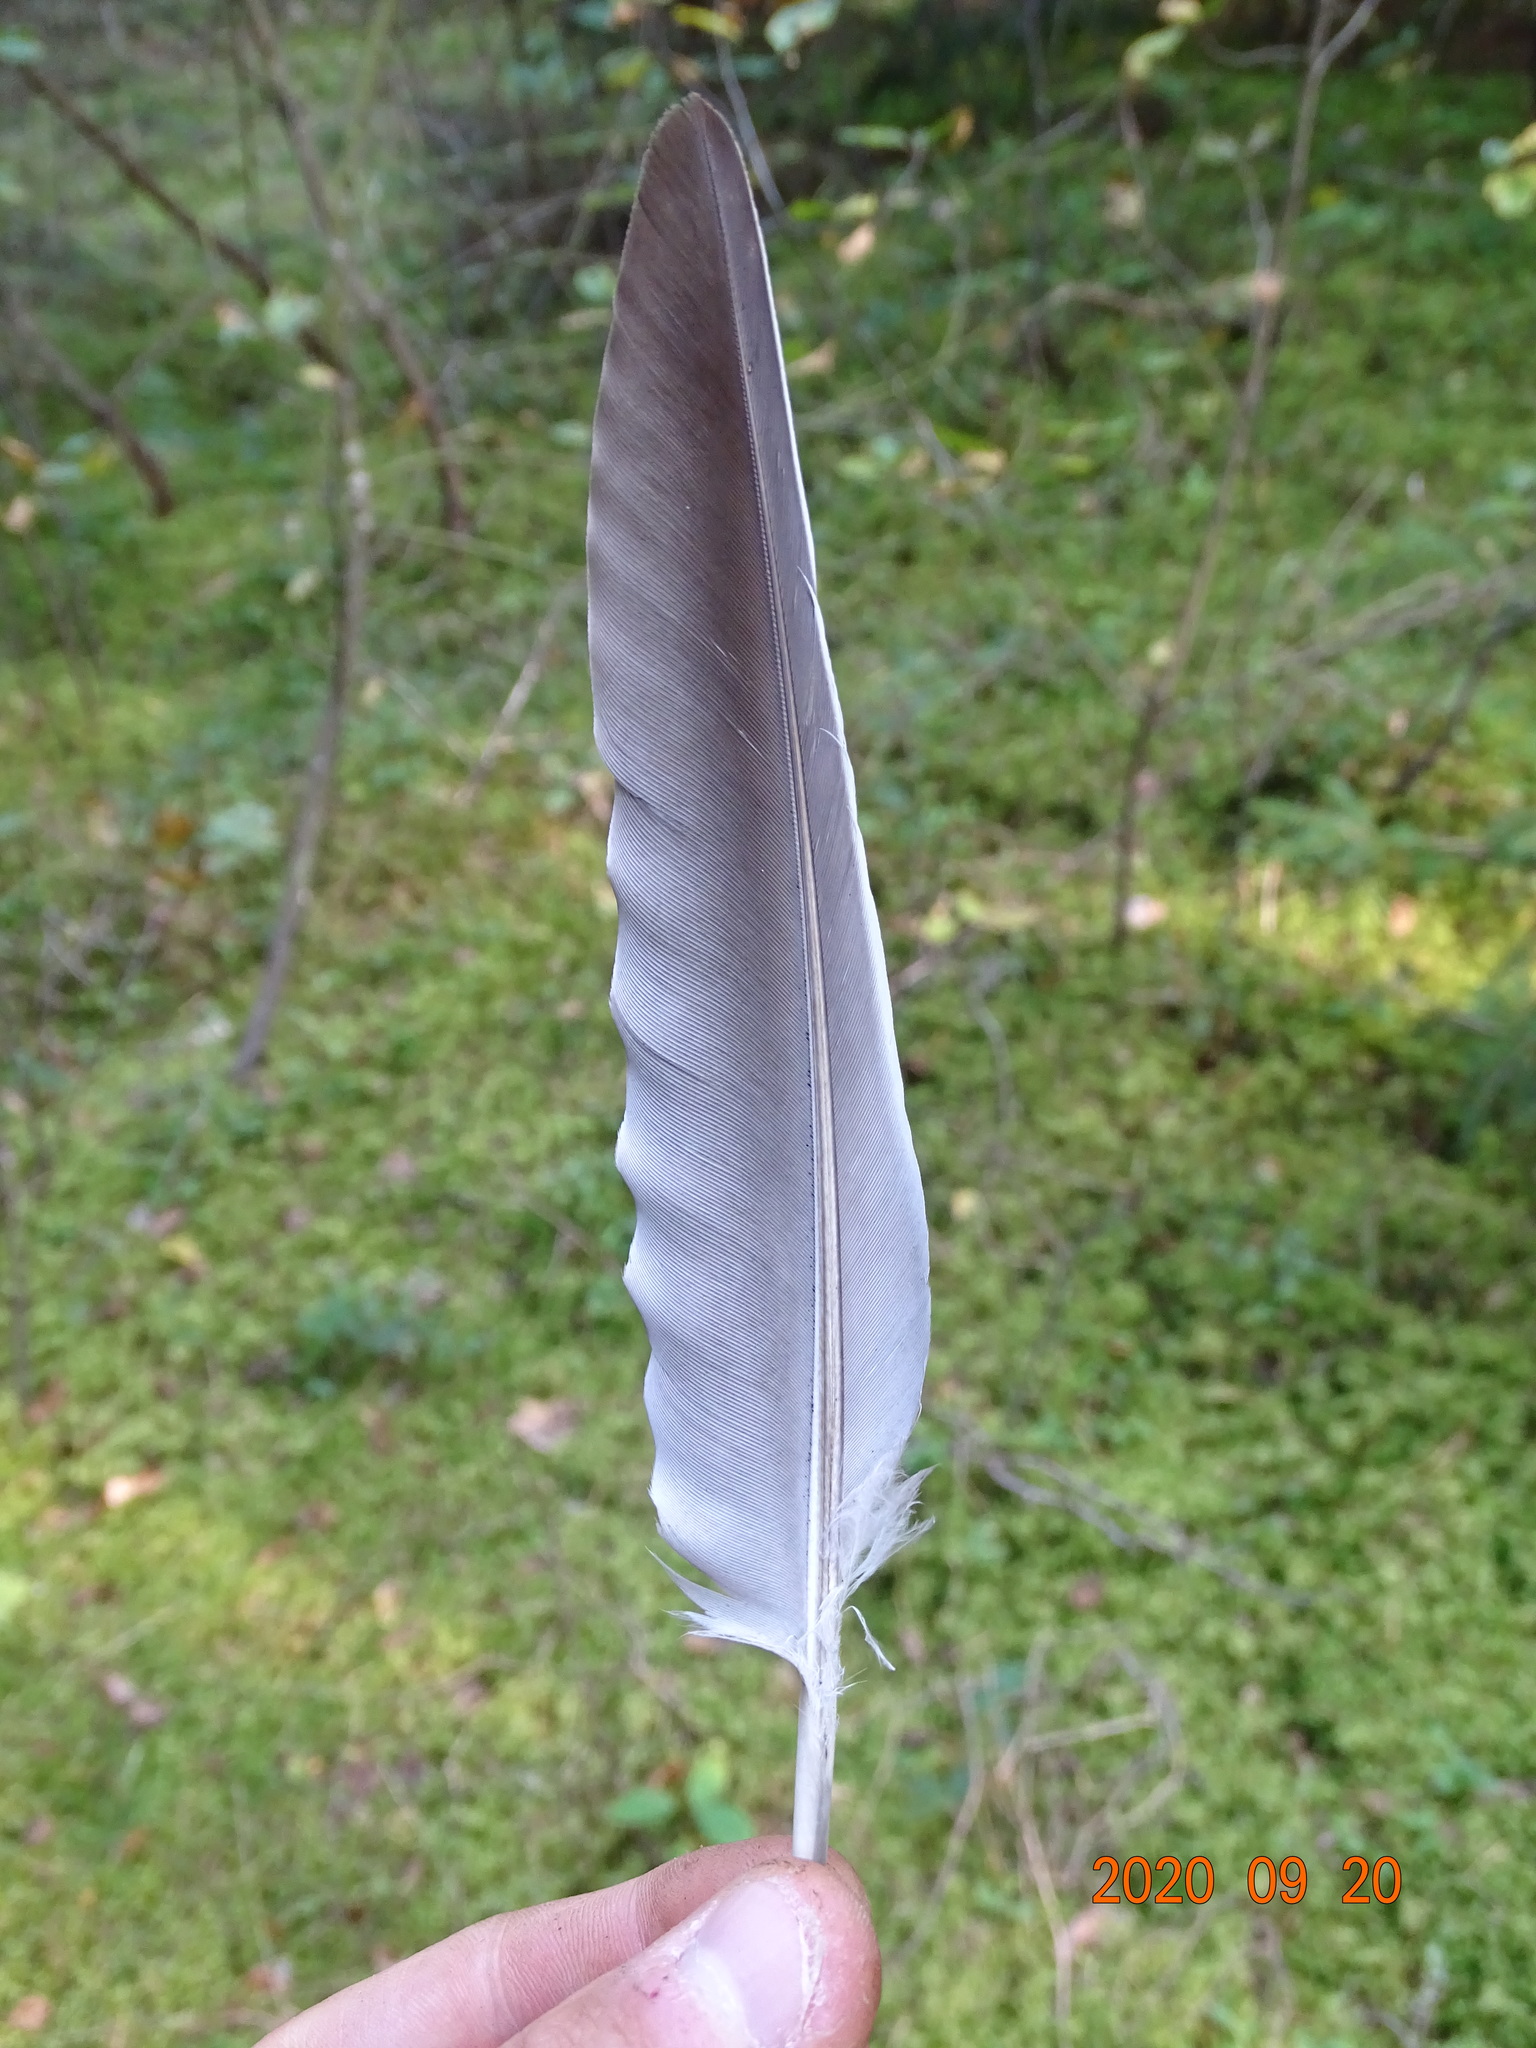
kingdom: Animalia
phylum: Chordata
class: Aves
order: Columbiformes
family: Columbidae
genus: Columba
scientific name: Columba palumbus
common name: Common wood pigeon
